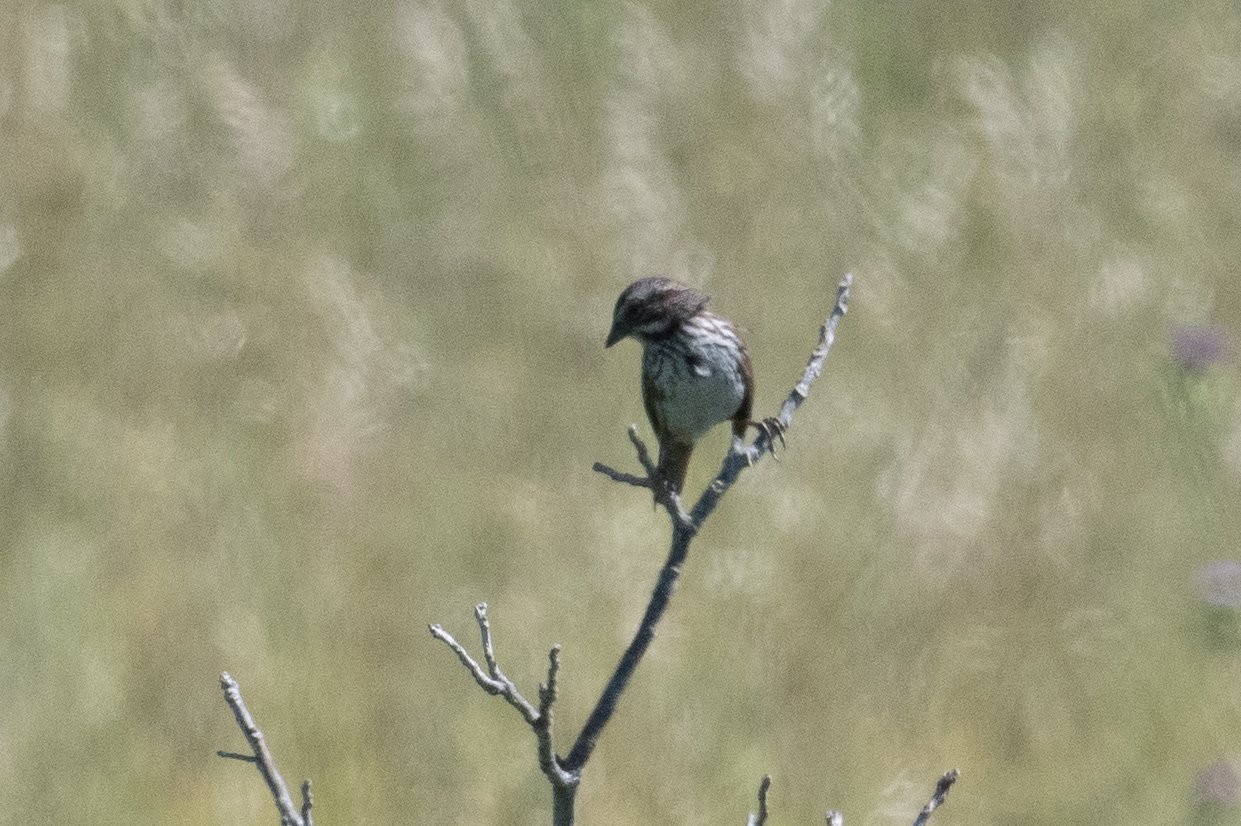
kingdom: Animalia
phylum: Chordata
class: Aves
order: Passeriformes
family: Passerellidae
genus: Melospiza
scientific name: Melospiza melodia
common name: Song sparrow
